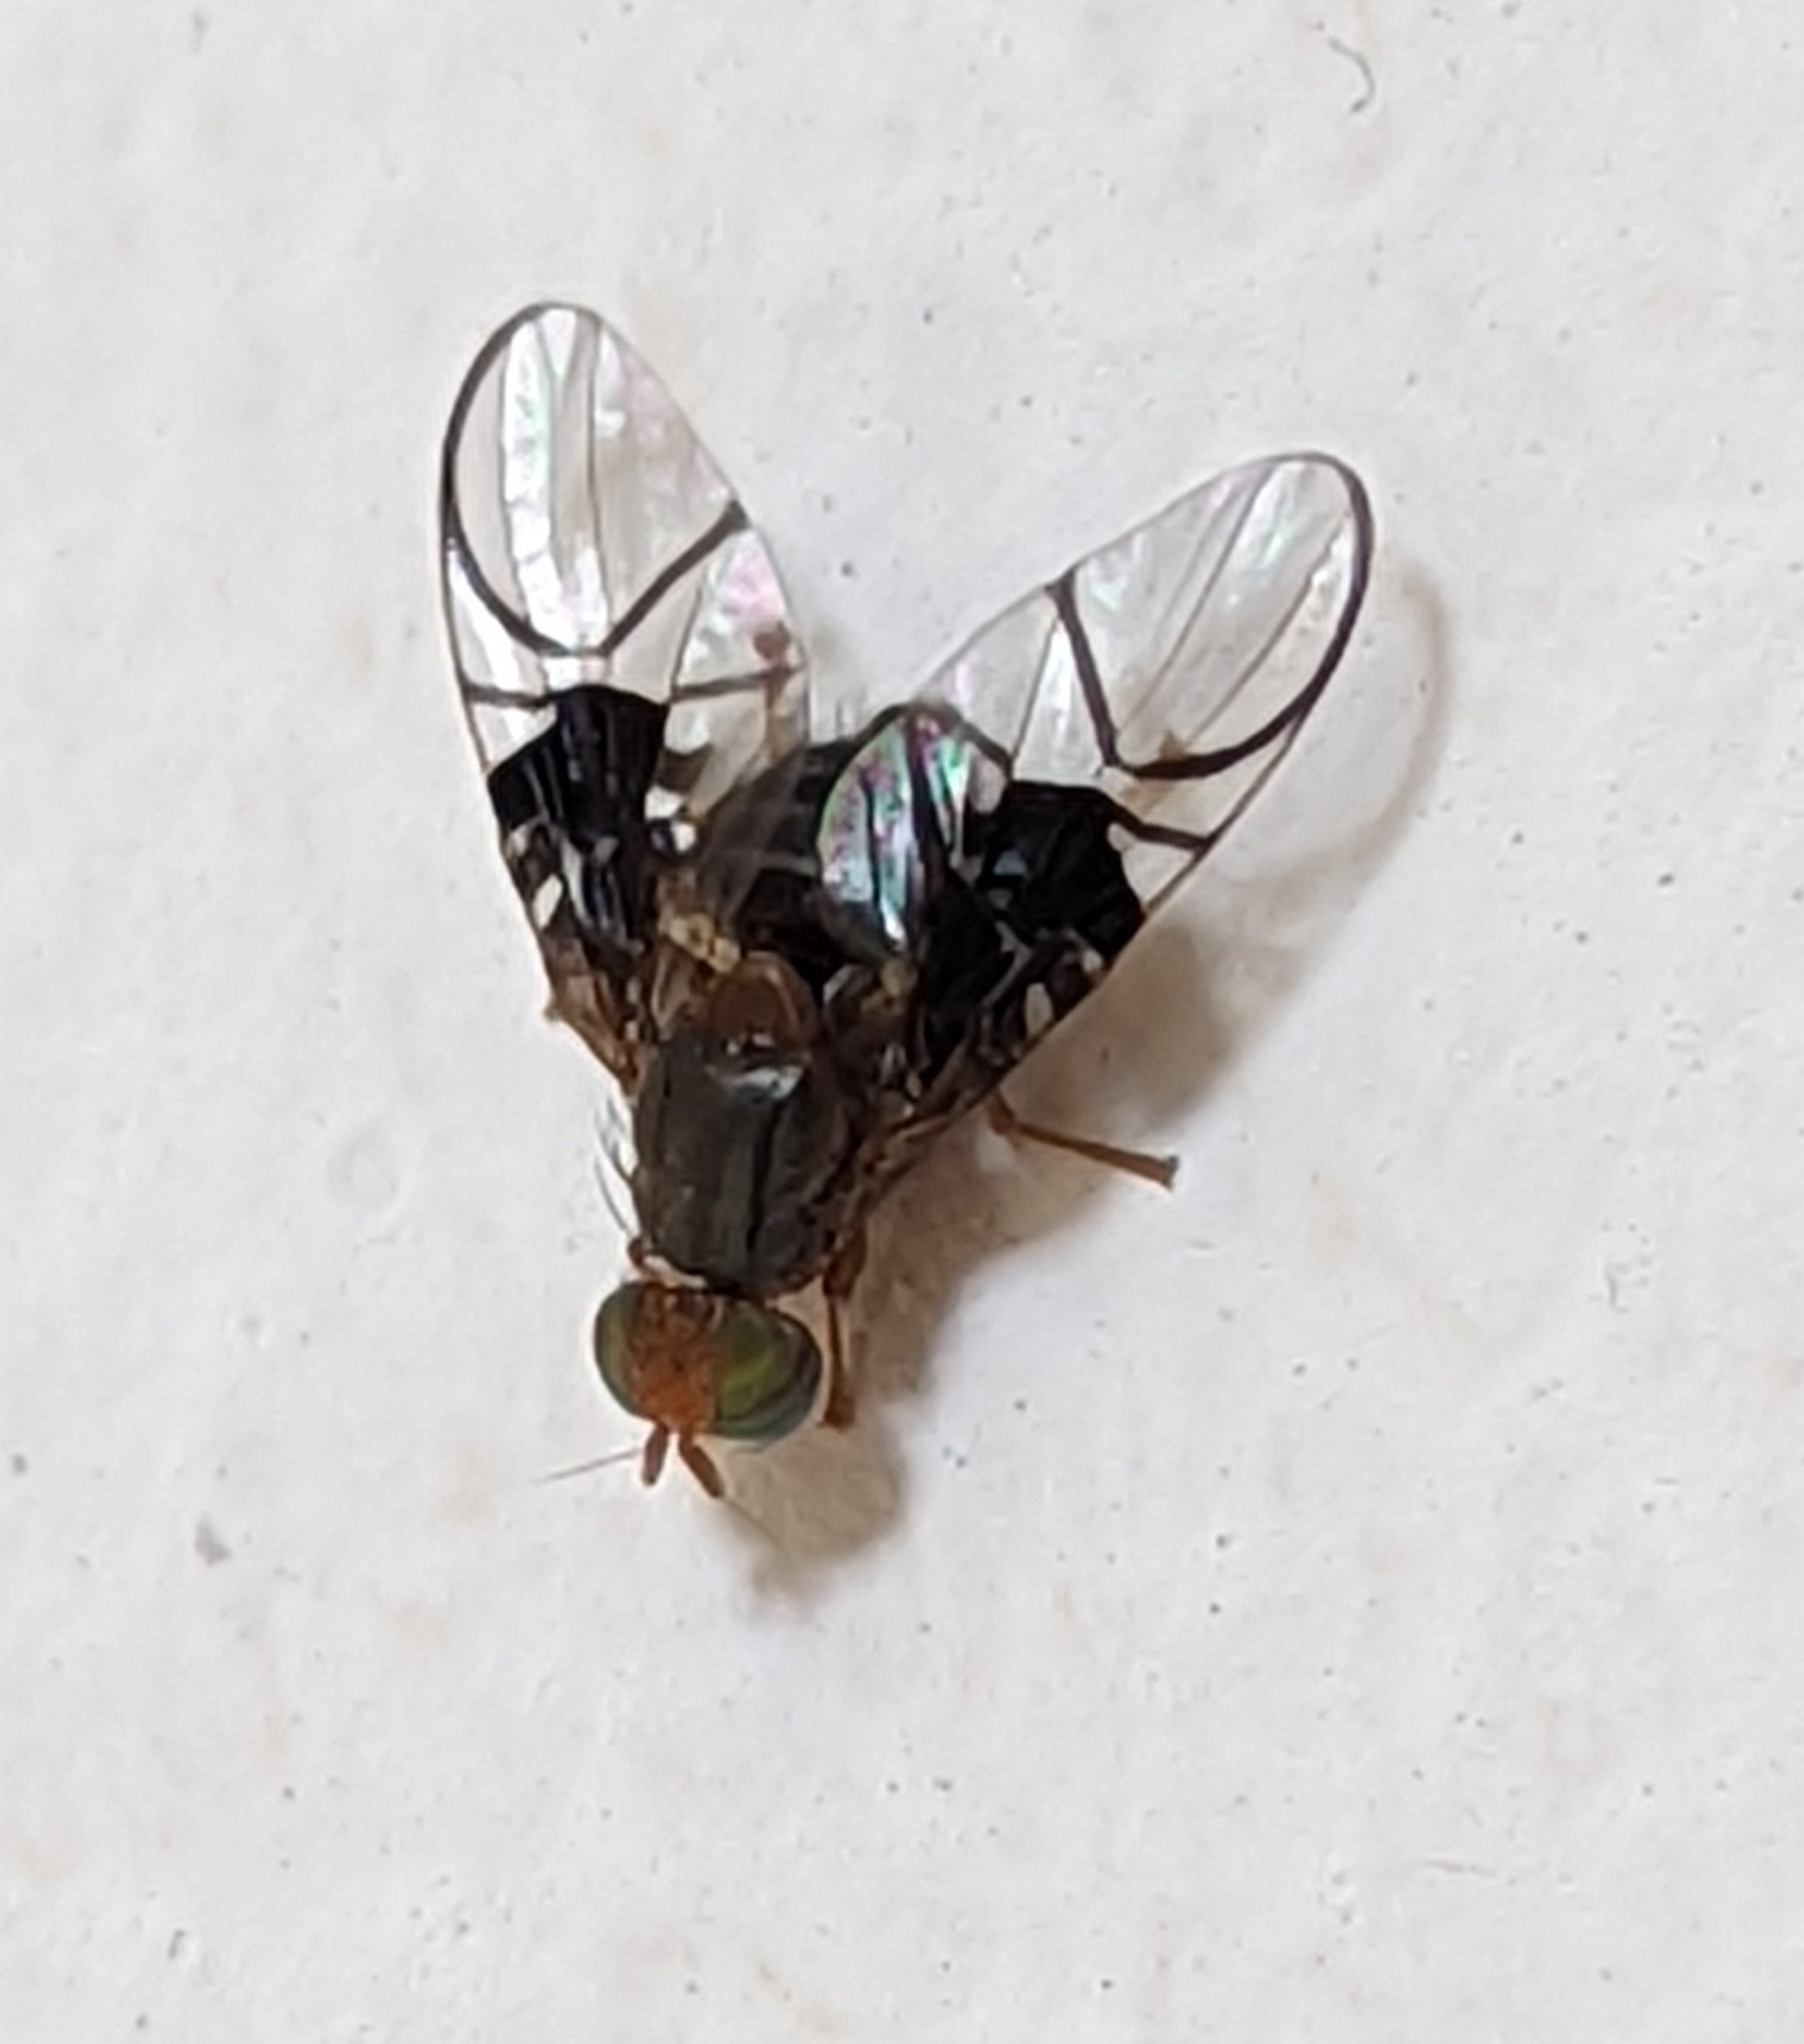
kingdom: Animalia
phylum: Arthropoda
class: Insecta
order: Diptera
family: Tephritidae
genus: Anomoia
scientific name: Anomoia purmunda
